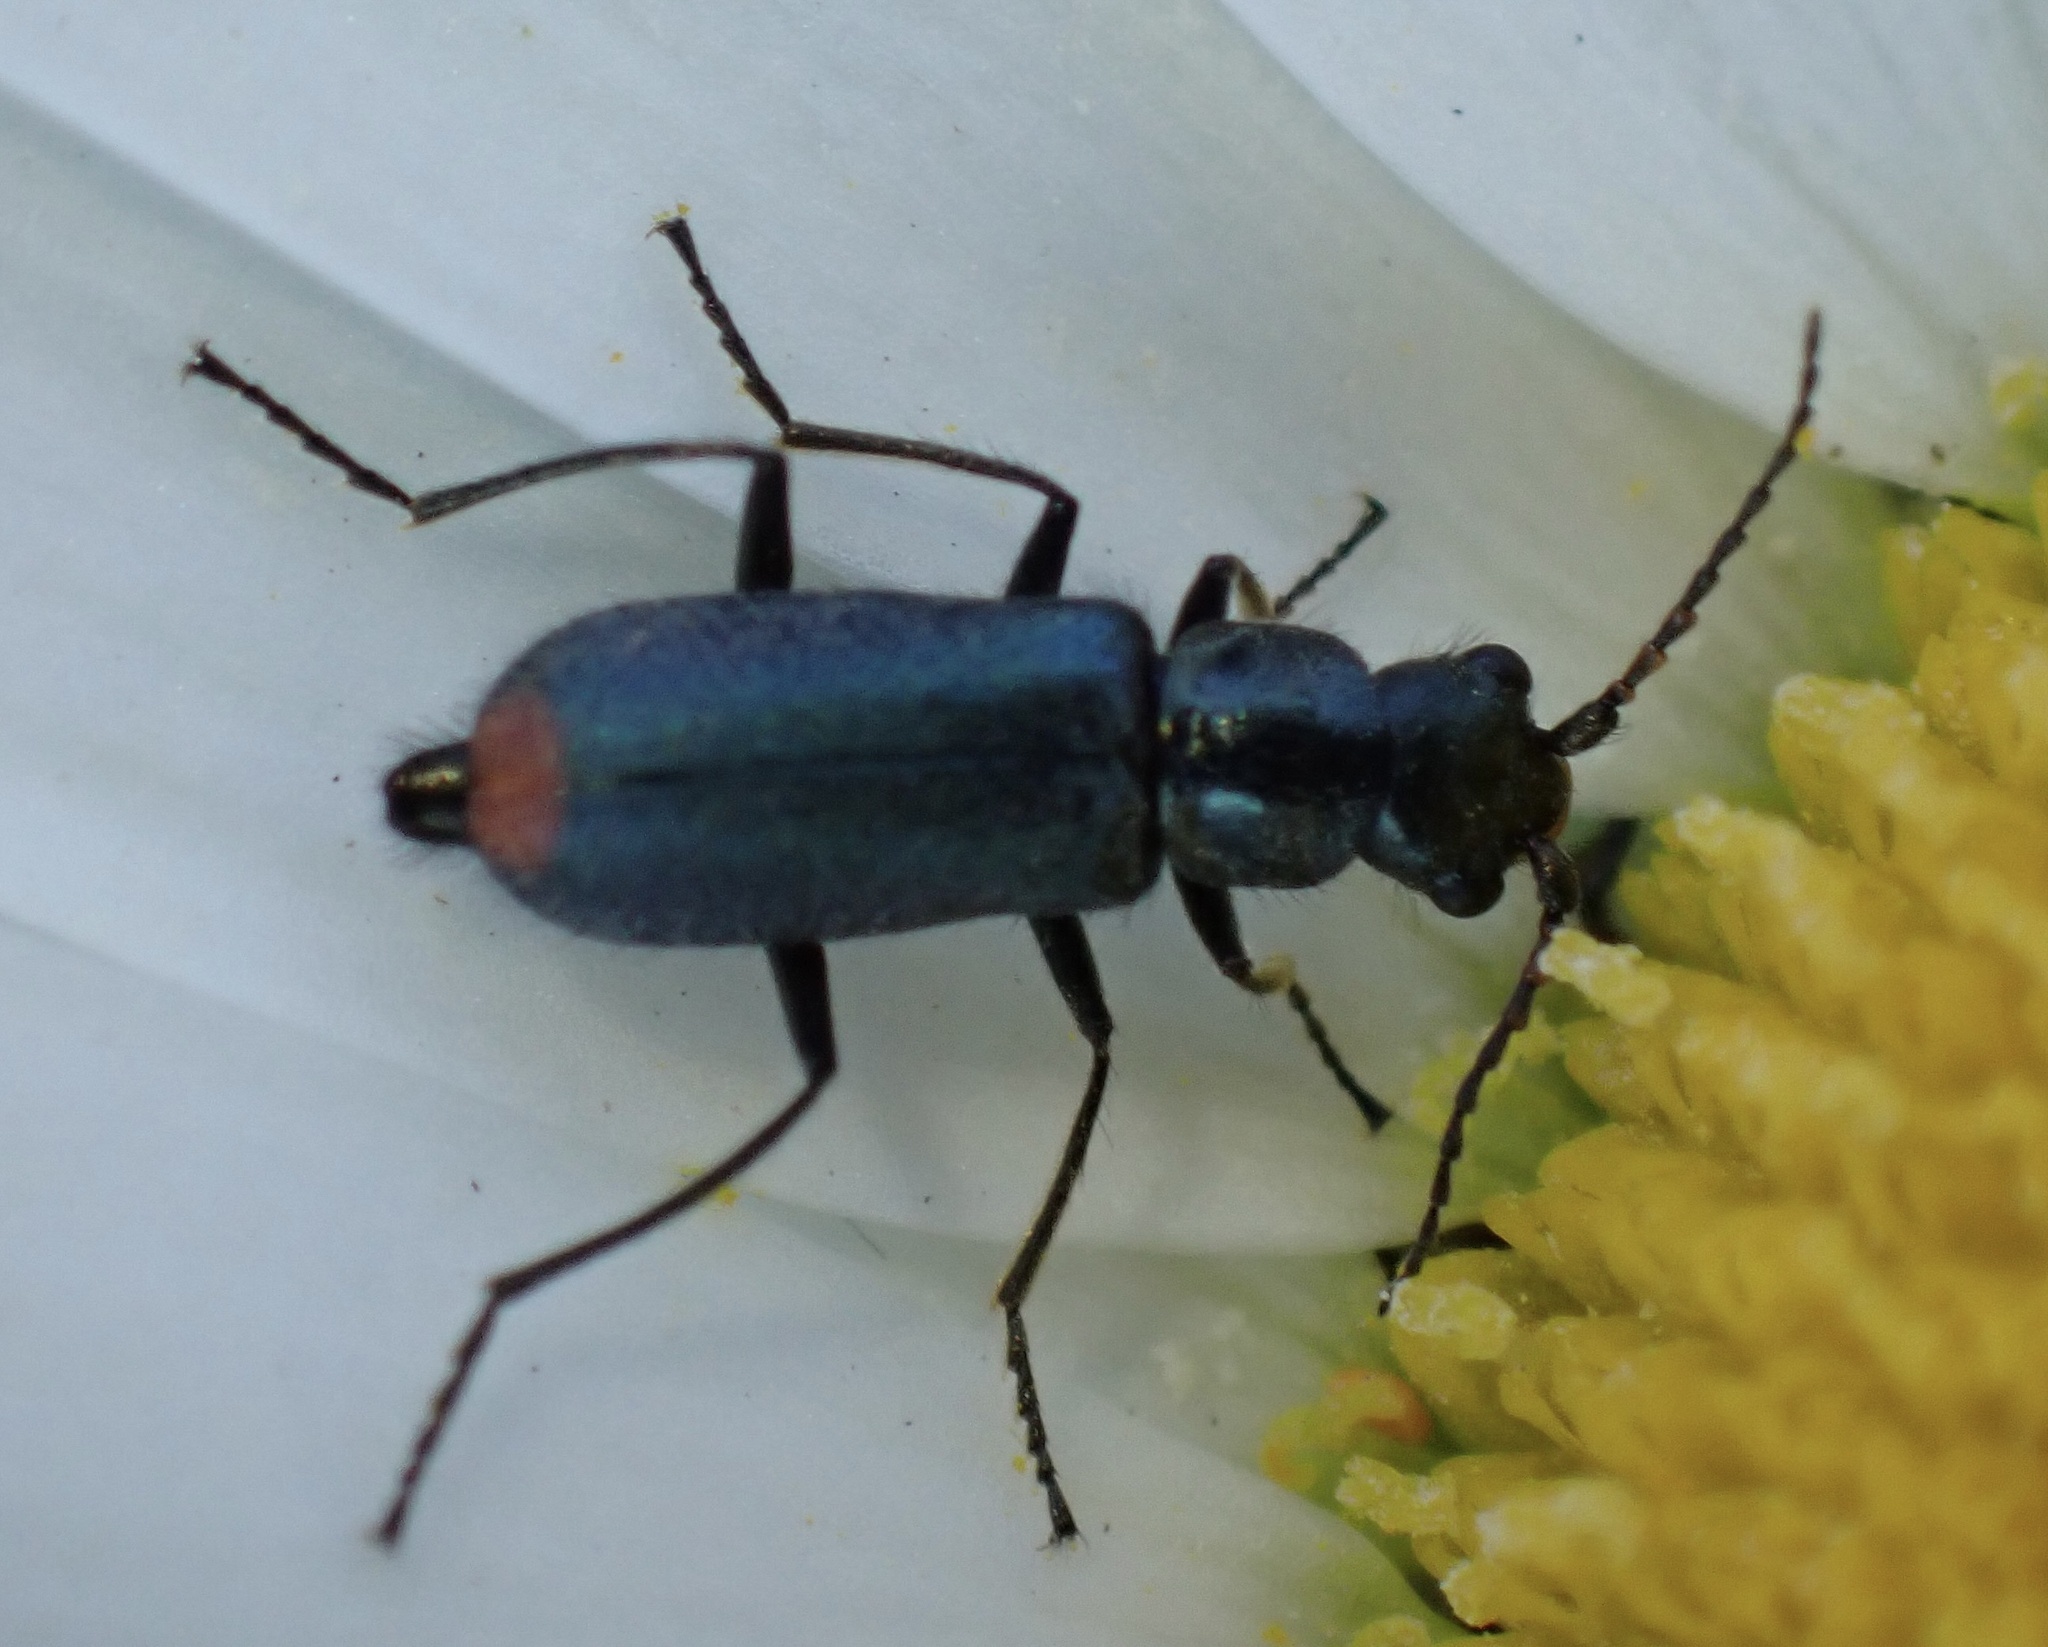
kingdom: Animalia
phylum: Arthropoda
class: Insecta
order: Coleoptera
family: Malachiidae
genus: Cordylepherus
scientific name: Cordylepherus viridis
